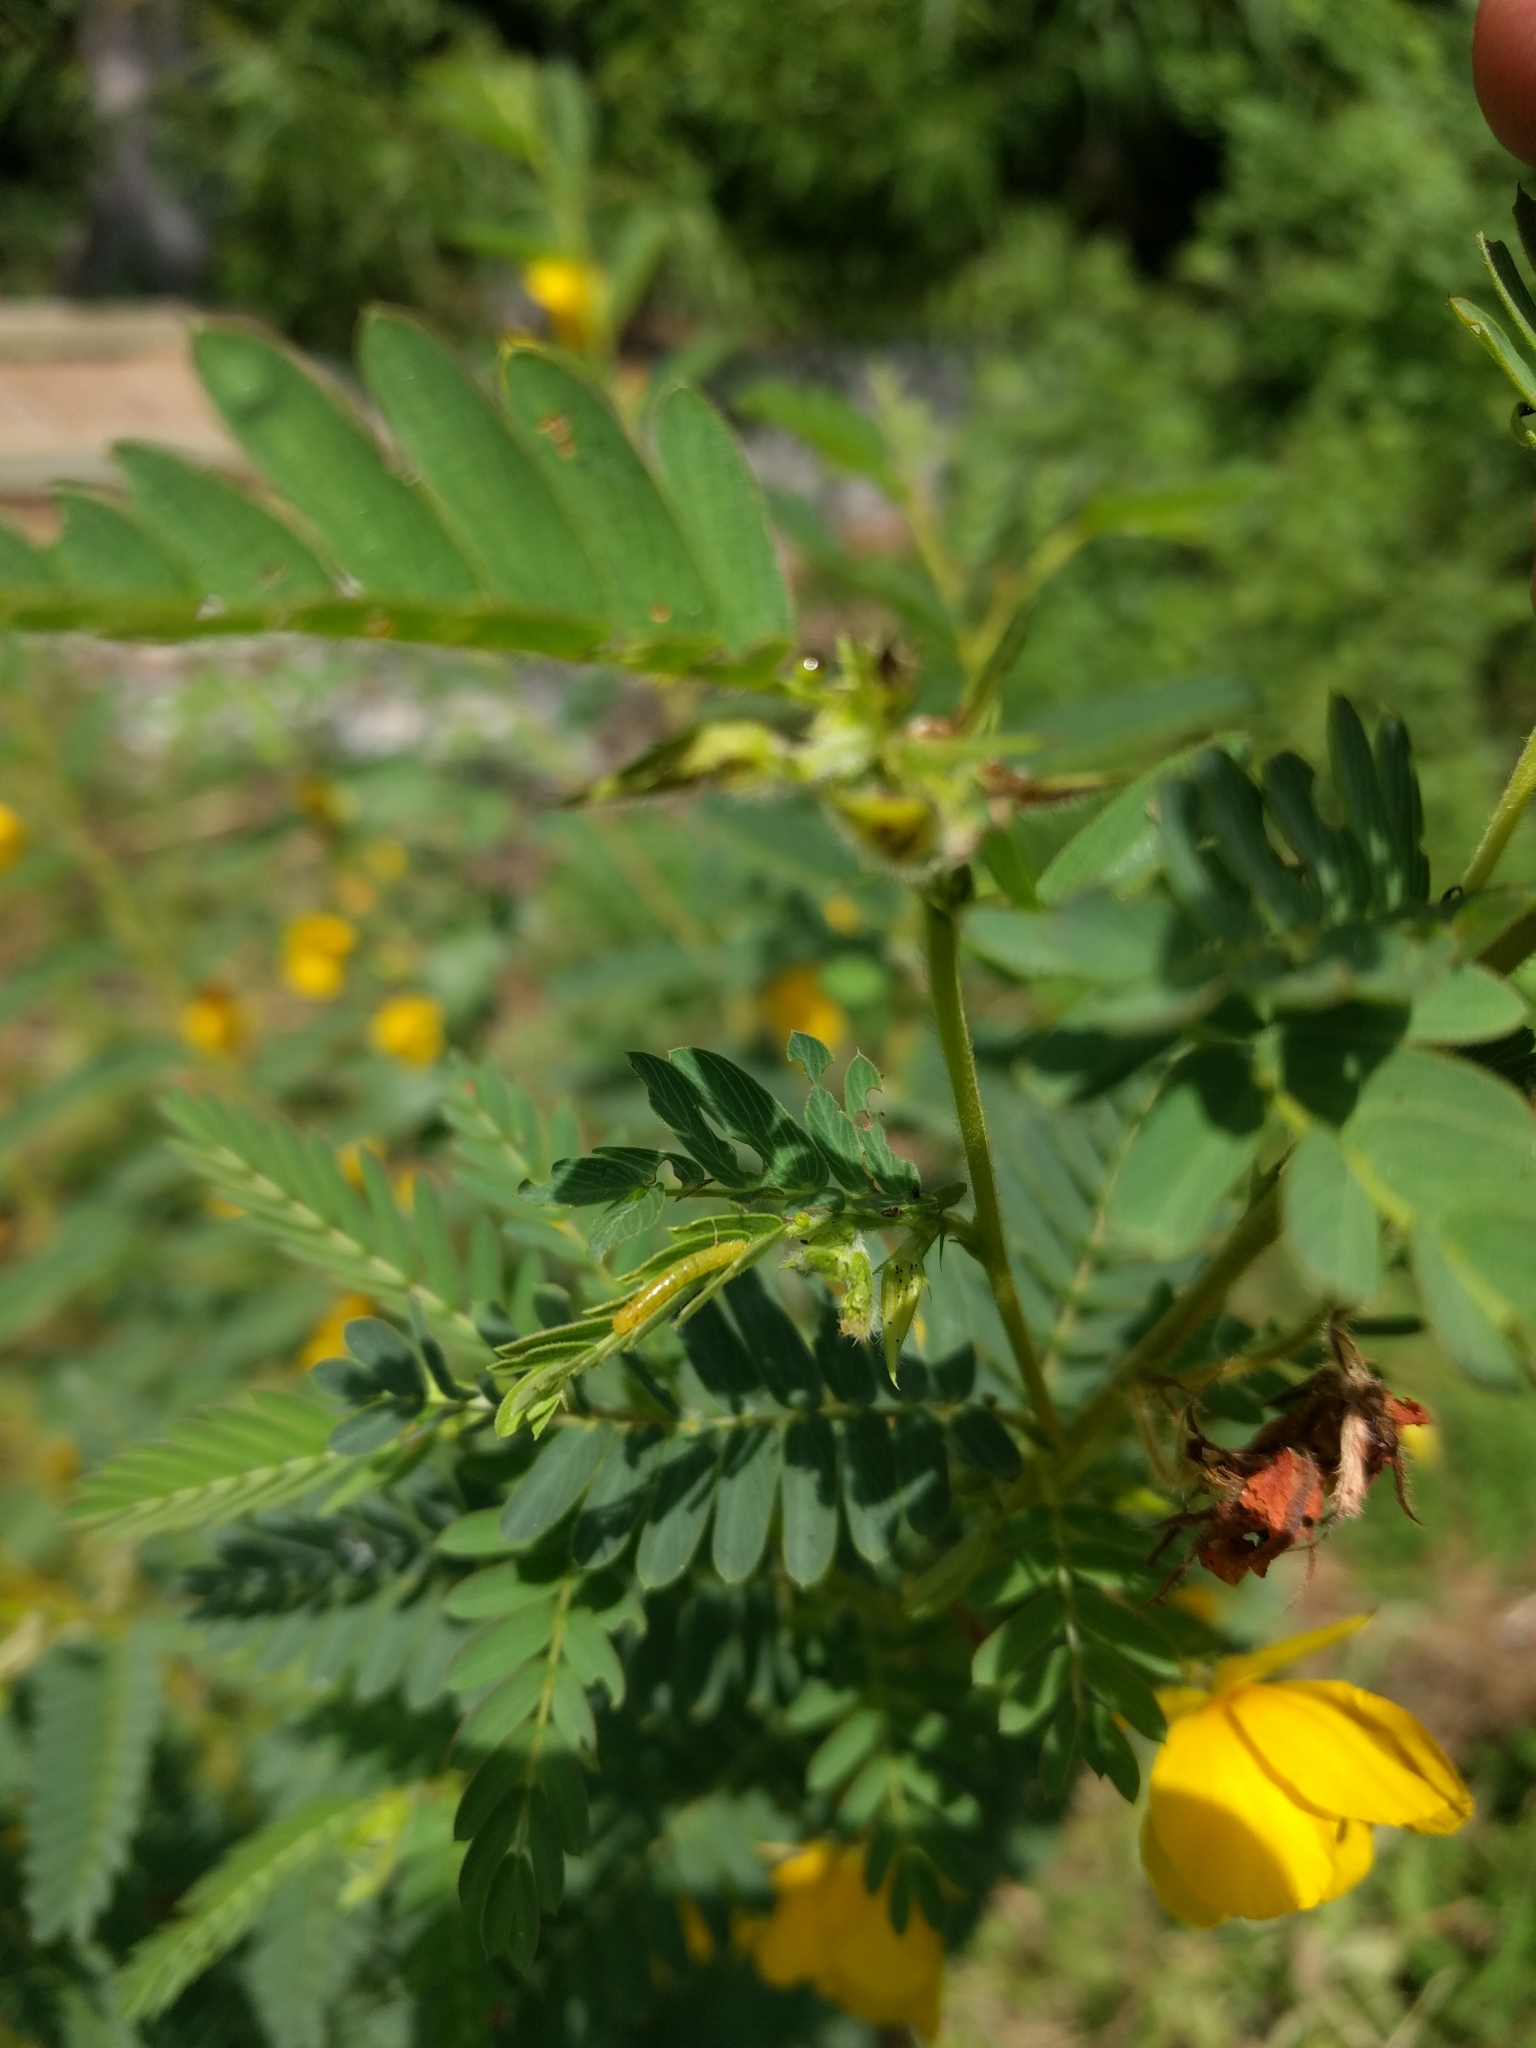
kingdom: Plantae
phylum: Tracheophyta
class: Magnoliopsida
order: Fabales
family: Fabaceae
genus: Chamaecrista
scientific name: Chamaecrista fasciculata
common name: Golden cassia
